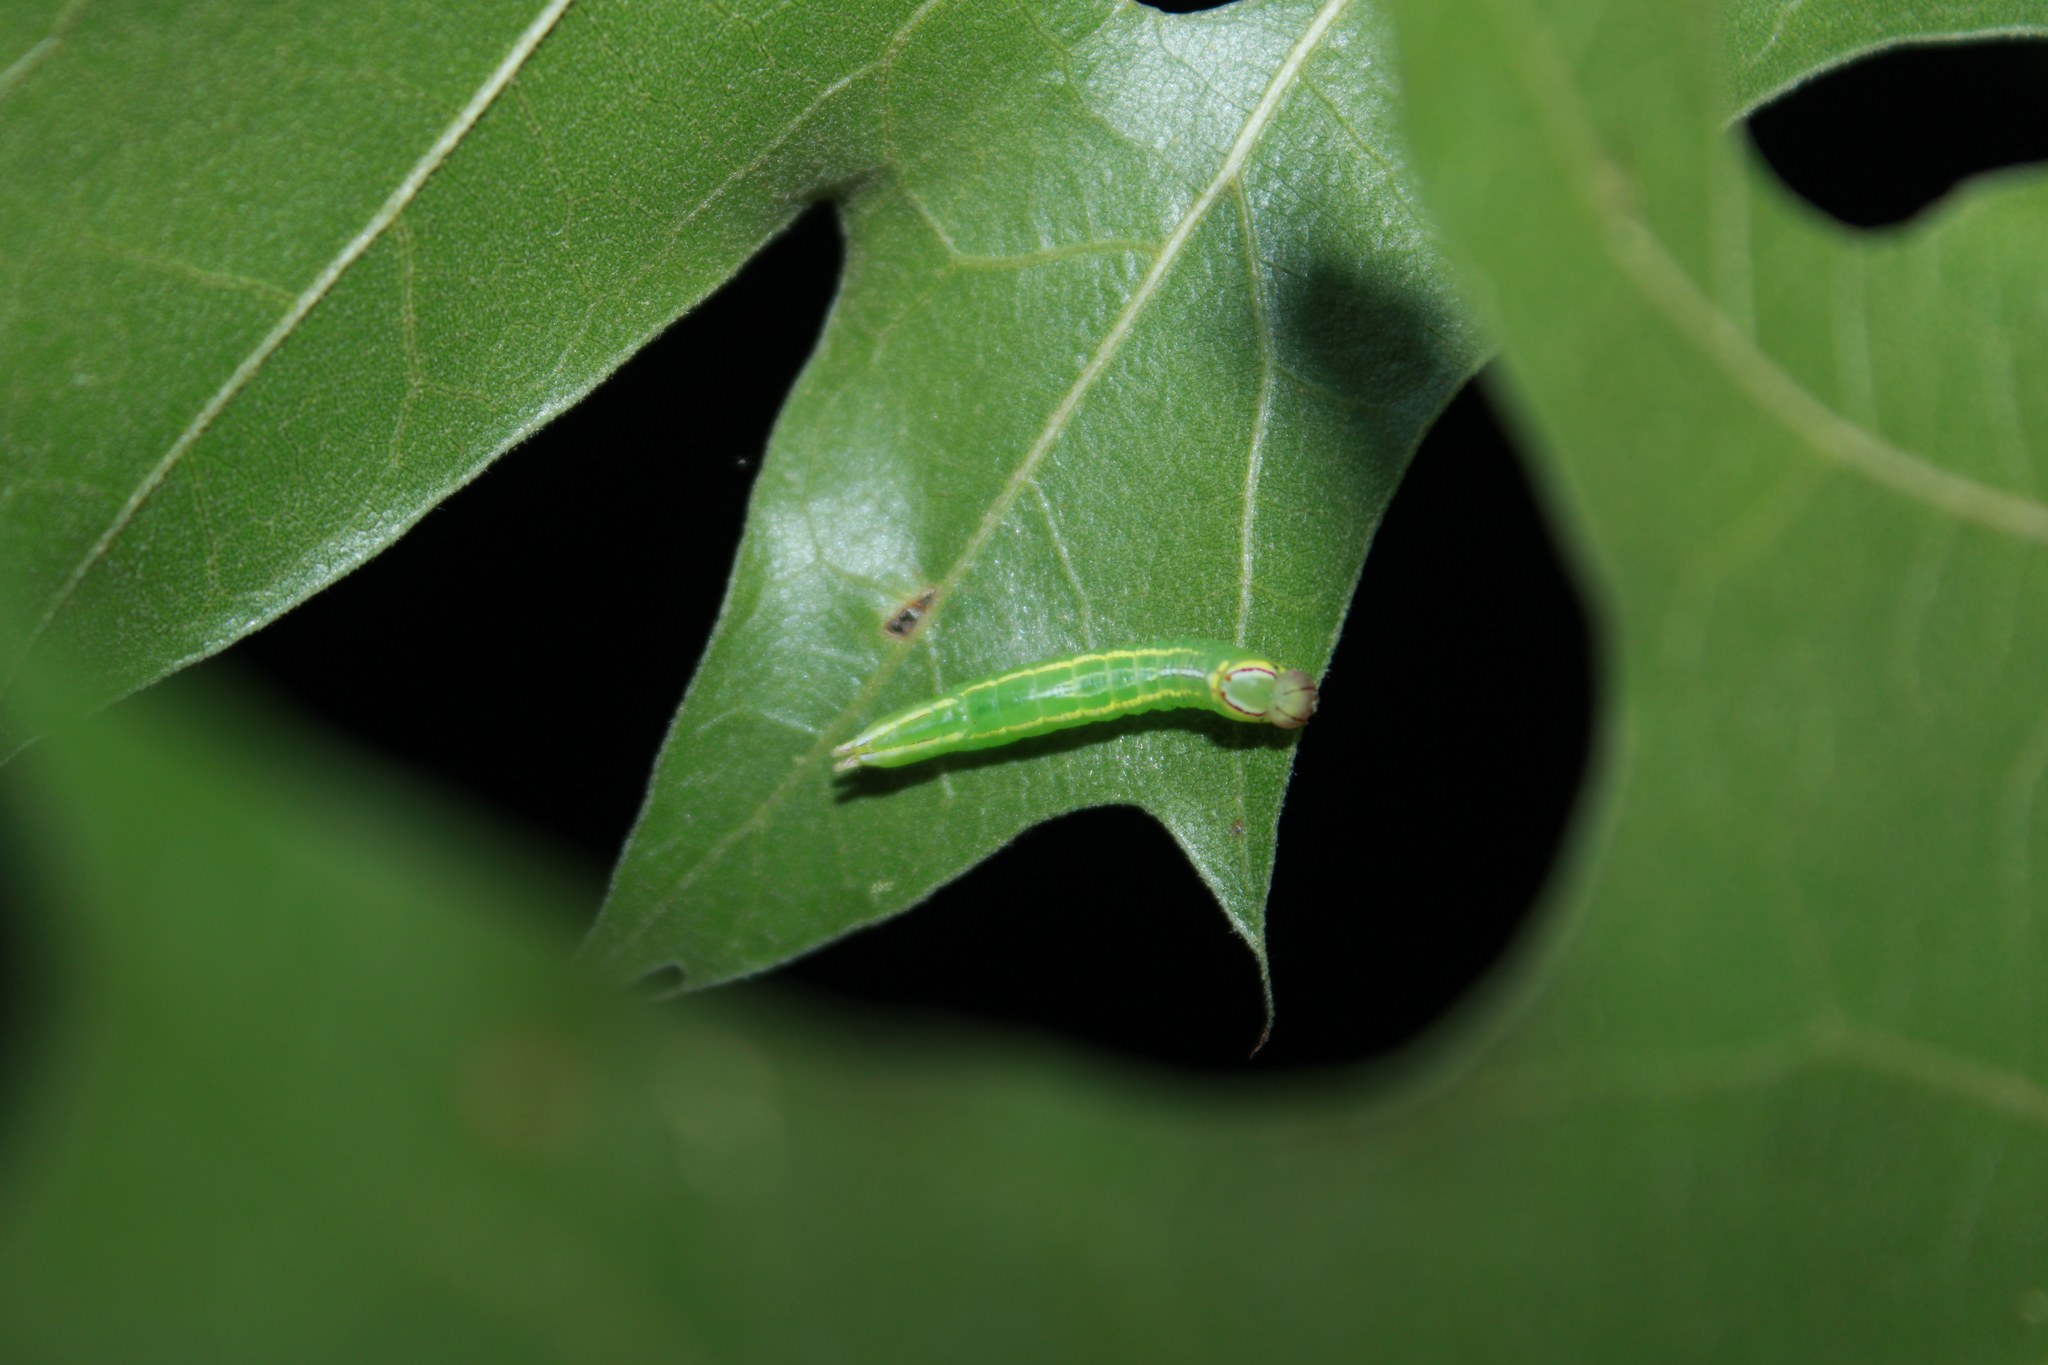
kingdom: Animalia
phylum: Arthropoda
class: Insecta
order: Lepidoptera
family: Notodontidae
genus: Disphragis
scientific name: Disphragis Cecrita guttivitta
